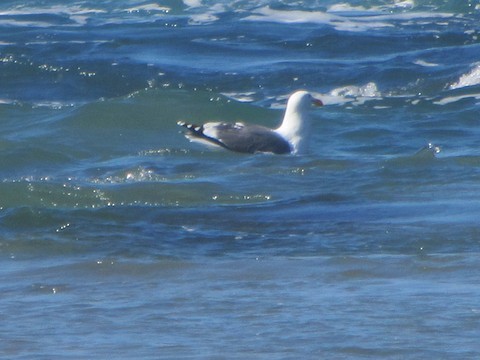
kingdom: Animalia
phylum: Chordata
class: Aves
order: Charadriiformes
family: Laridae
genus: Larus
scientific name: Larus occidentalis
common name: Western gull
